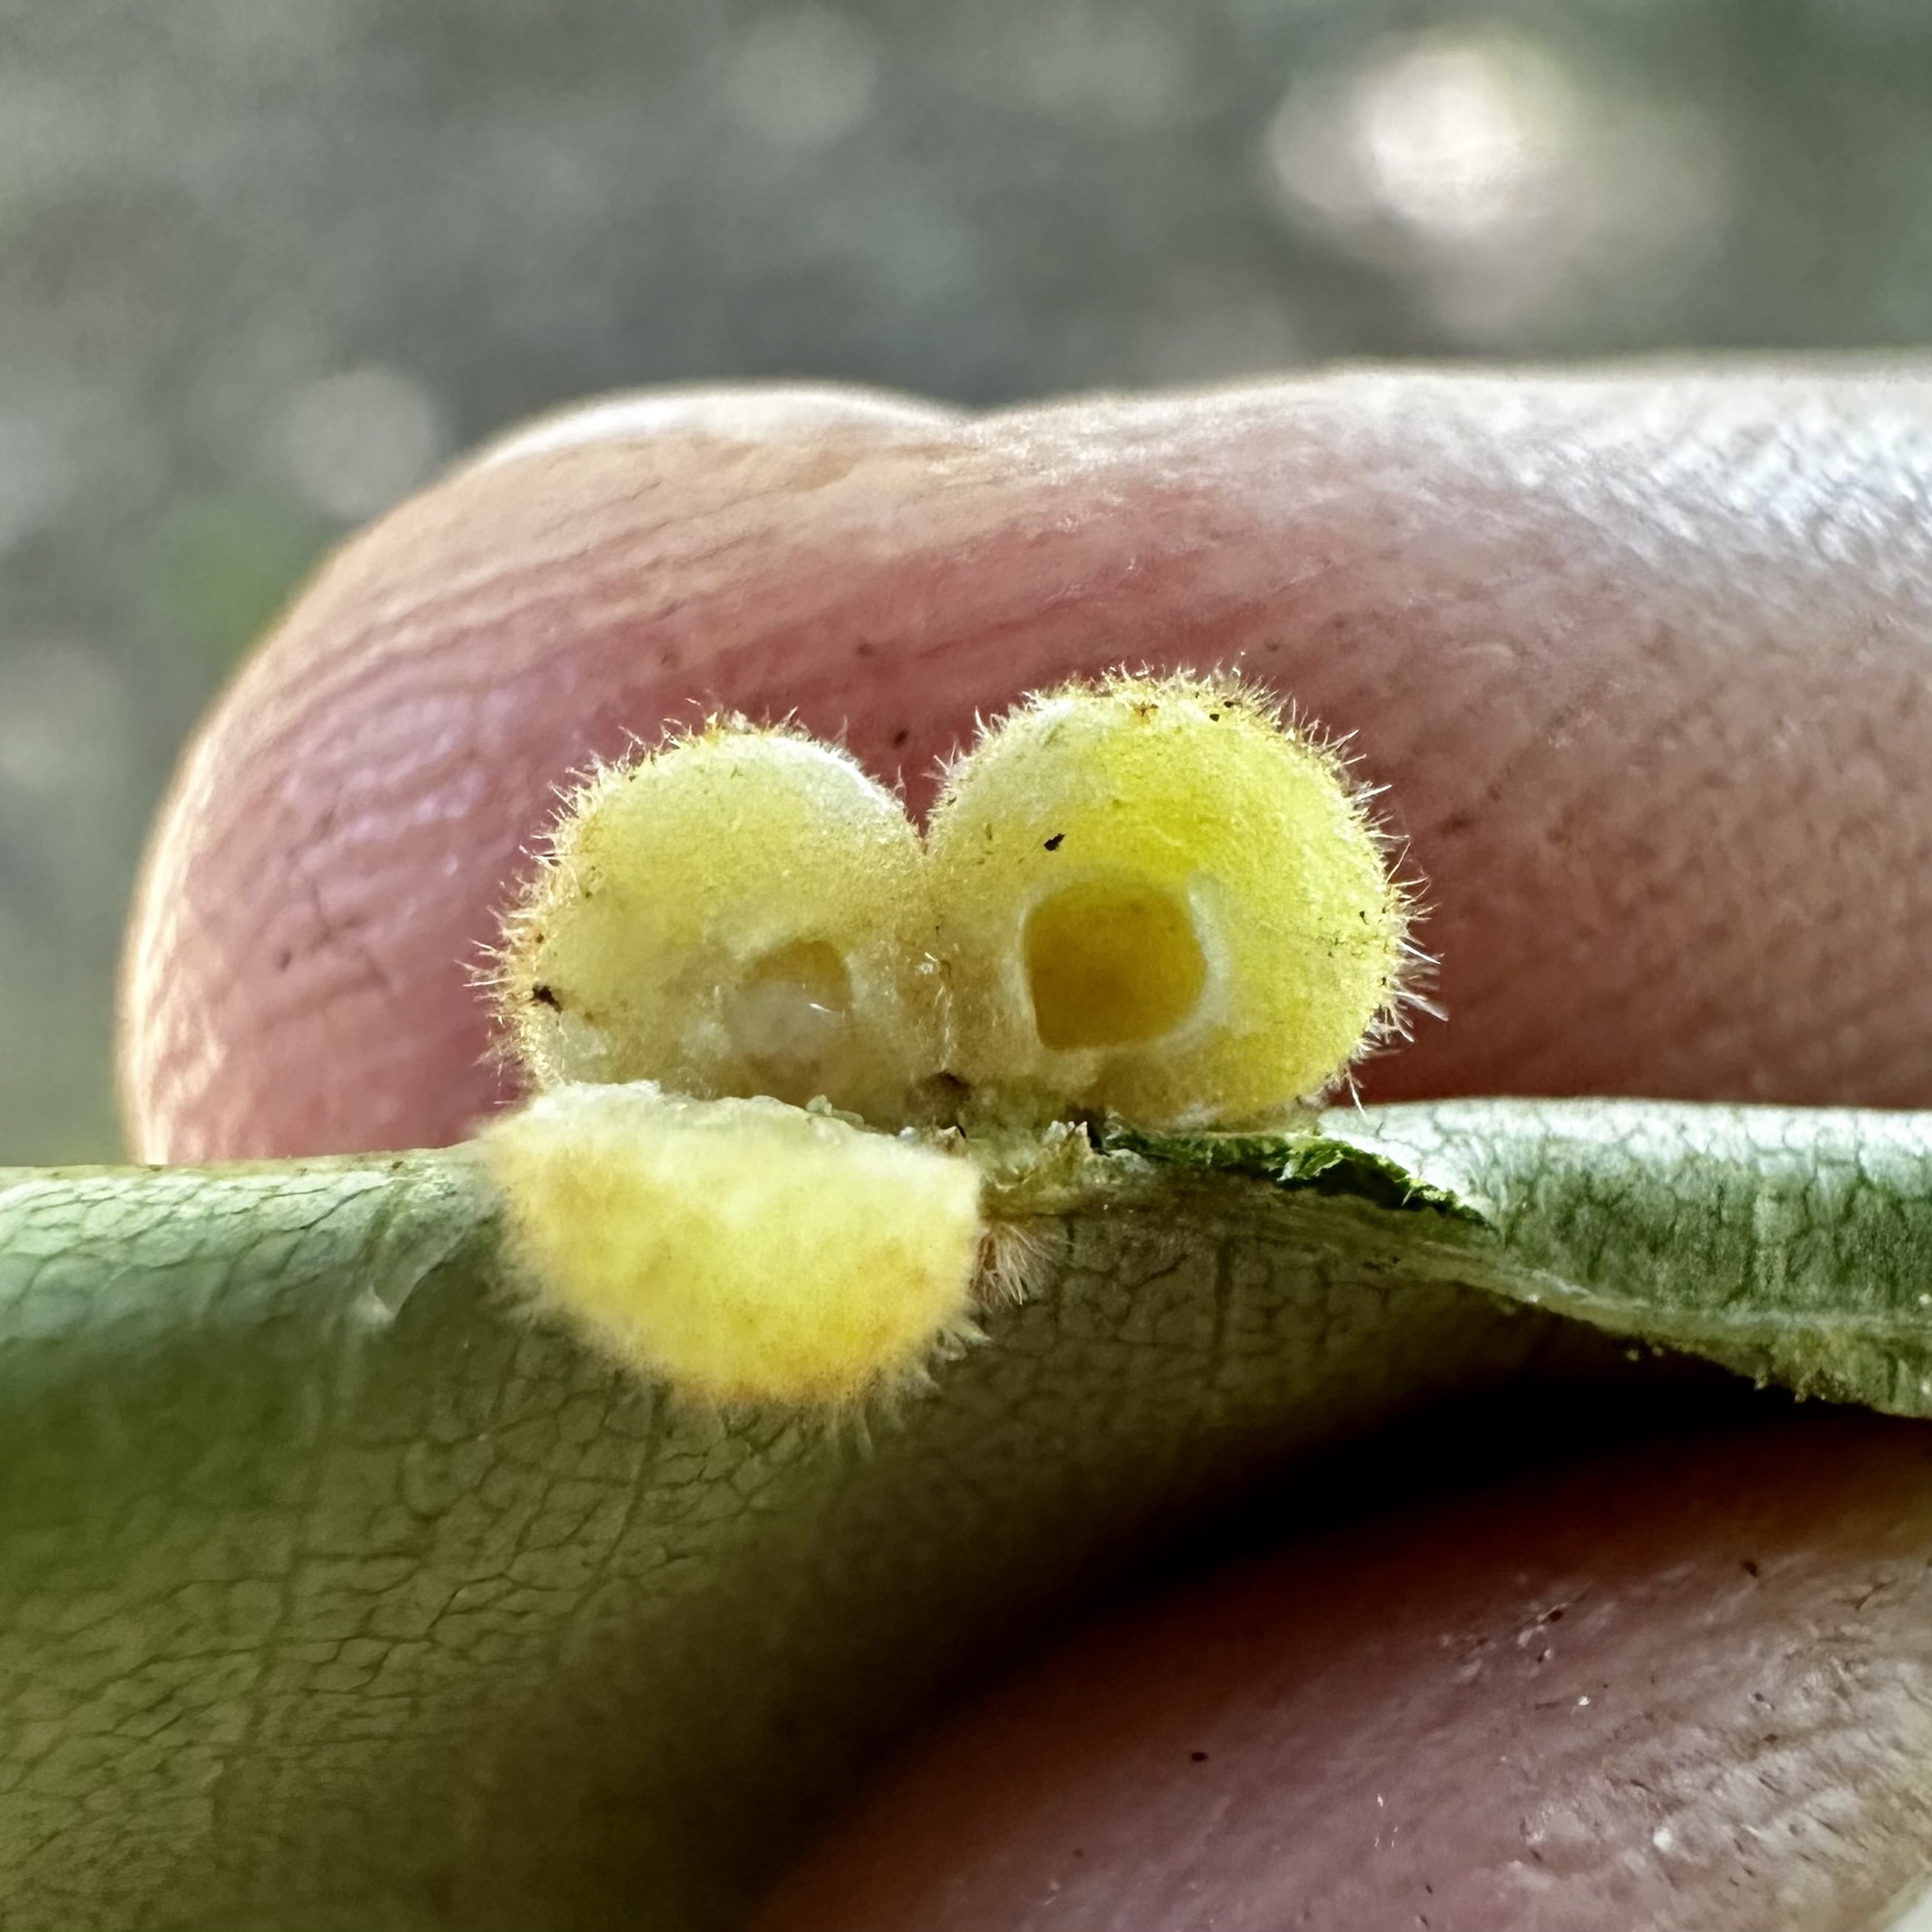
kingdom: Animalia
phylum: Arthropoda
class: Insecta
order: Diptera
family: Cecidomyiidae
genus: Caryomyia
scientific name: Caryomyia persicoides
